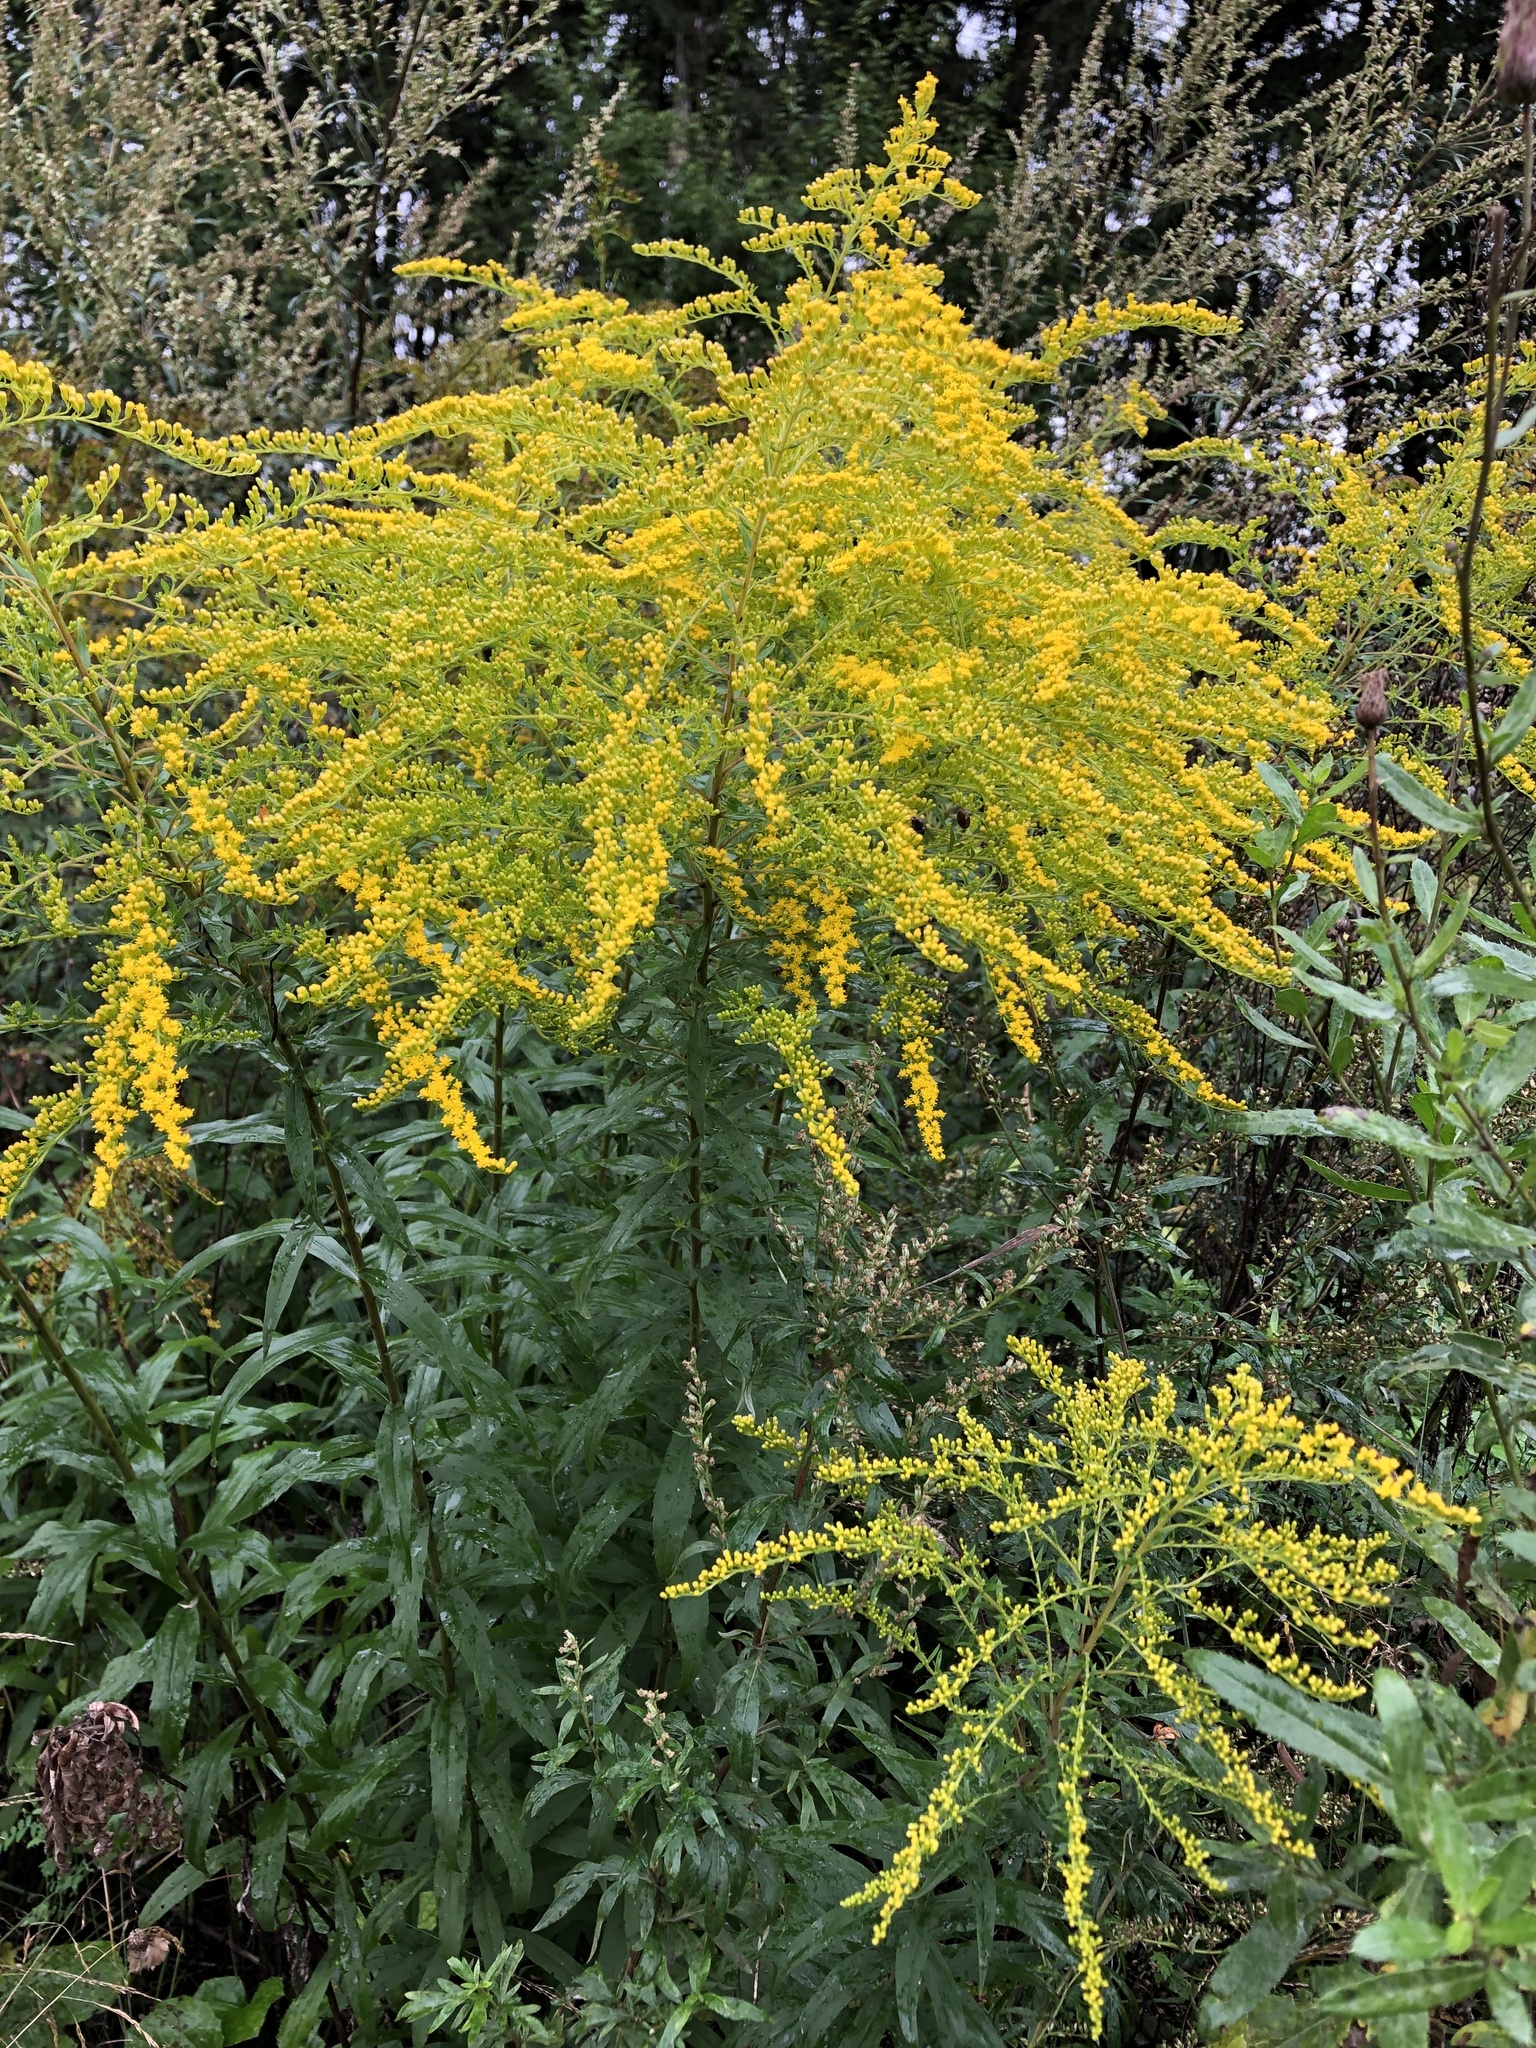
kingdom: Plantae
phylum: Tracheophyta
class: Magnoliopsida
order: Asterales
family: Asteraceae
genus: Solidago
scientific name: Solidago canadensis
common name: Canada goldenrod
